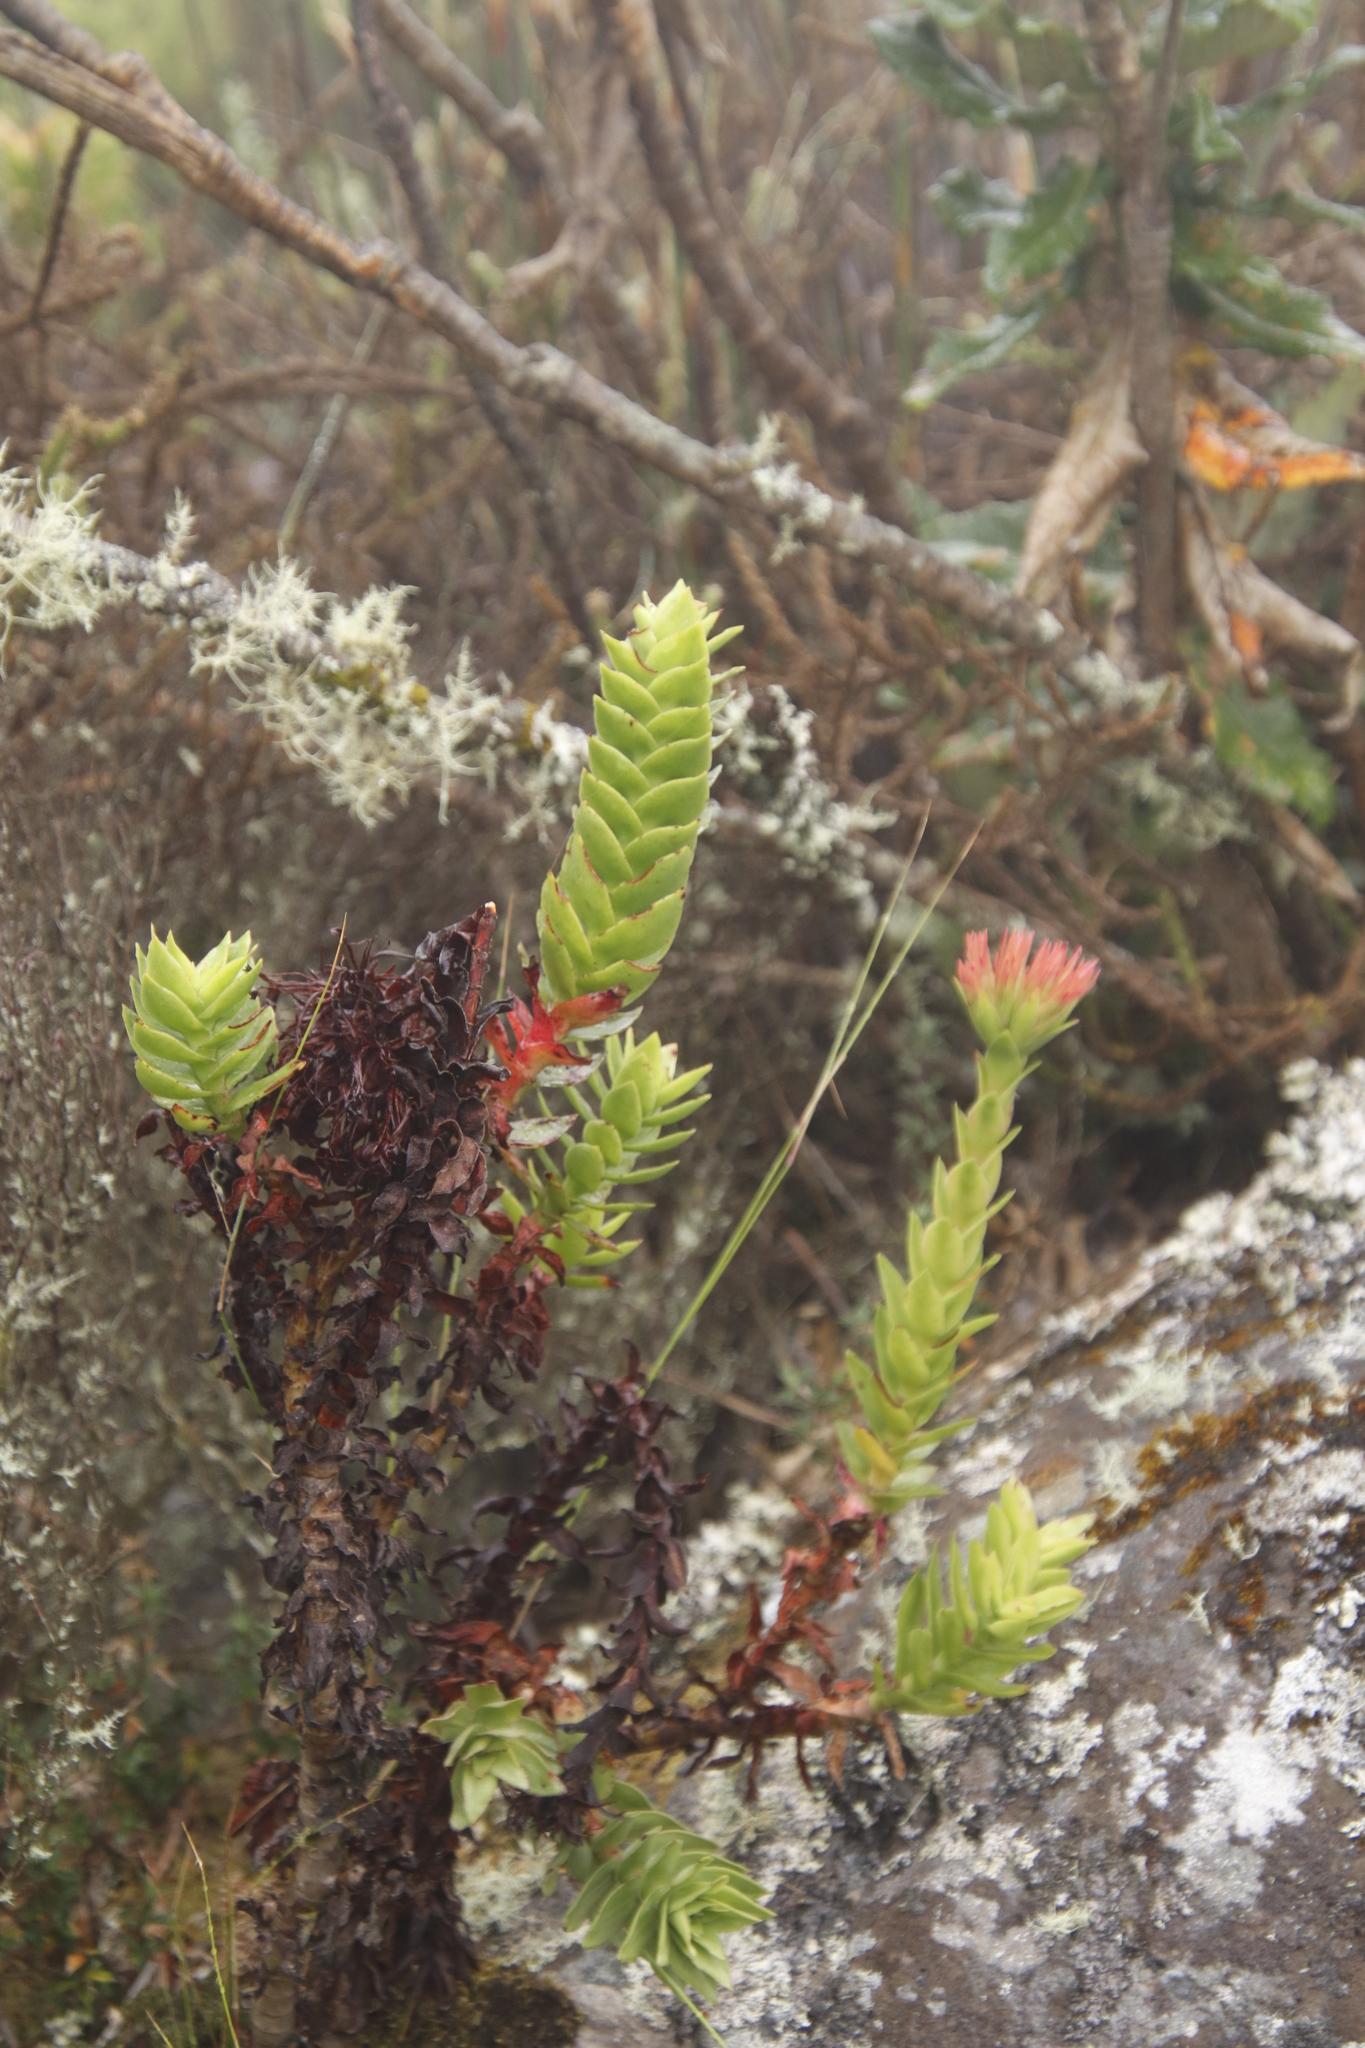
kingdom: Plantae
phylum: Tracheophyta
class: Magnoliopsida
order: Saxifragales
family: Crassulaceae
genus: Crassula
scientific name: Crassula coccinea
